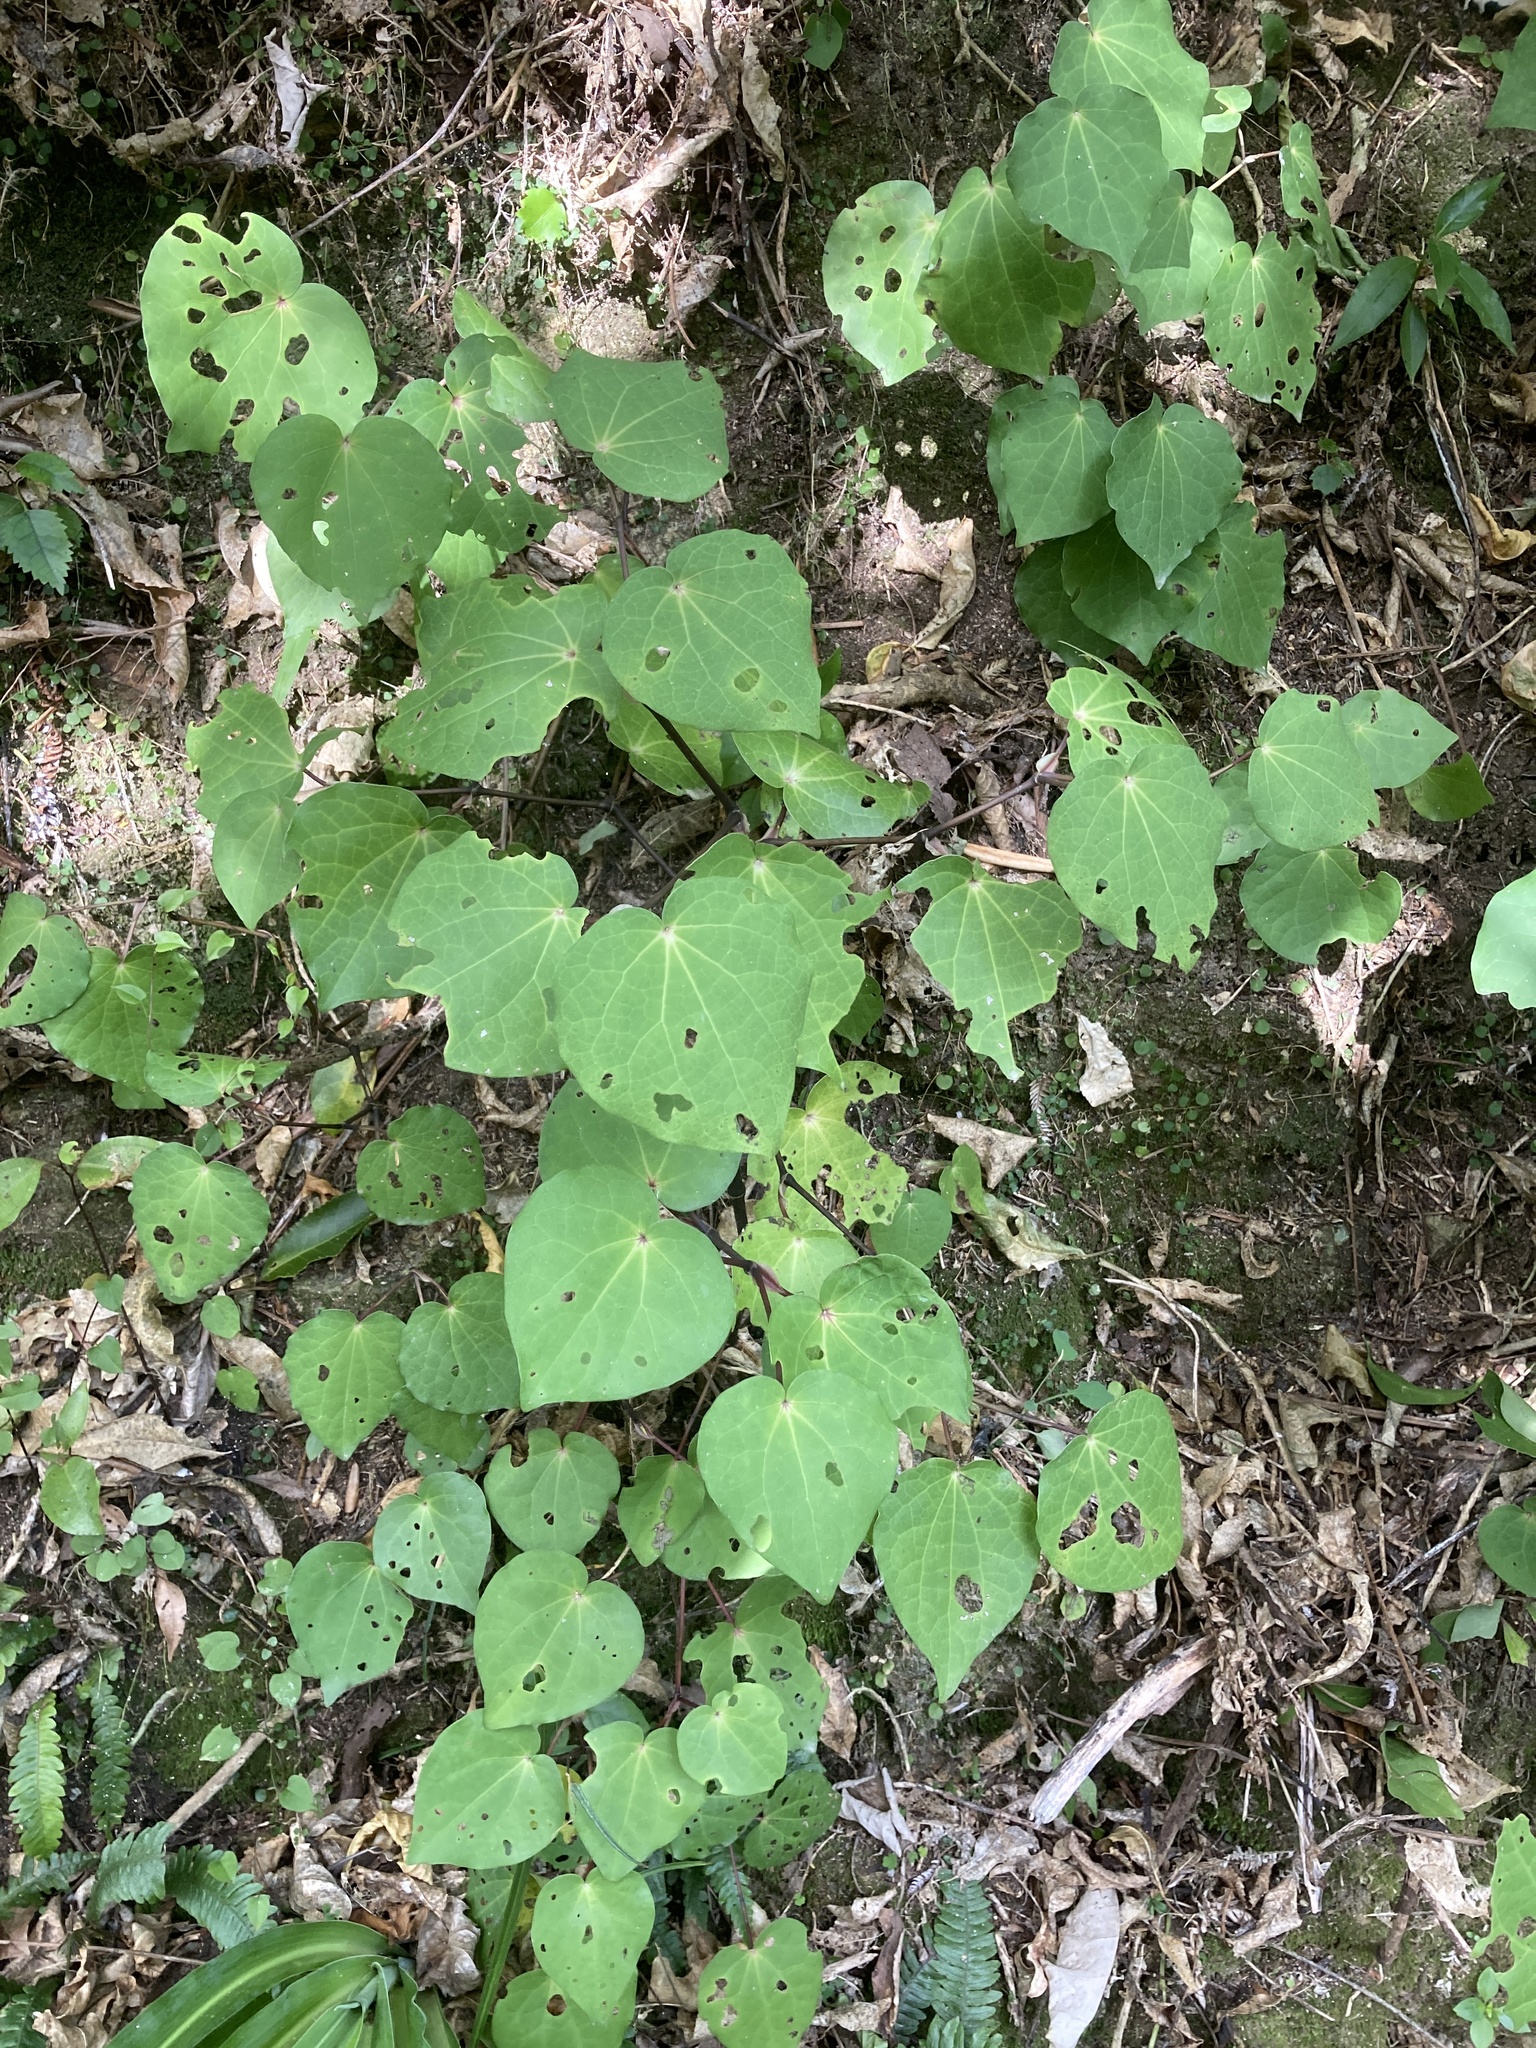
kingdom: Plantae
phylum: Tracheophyta
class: Magnoliopsida
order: Piperales
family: Piperaceae
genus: Macropiper
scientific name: Macropiper excelsum
